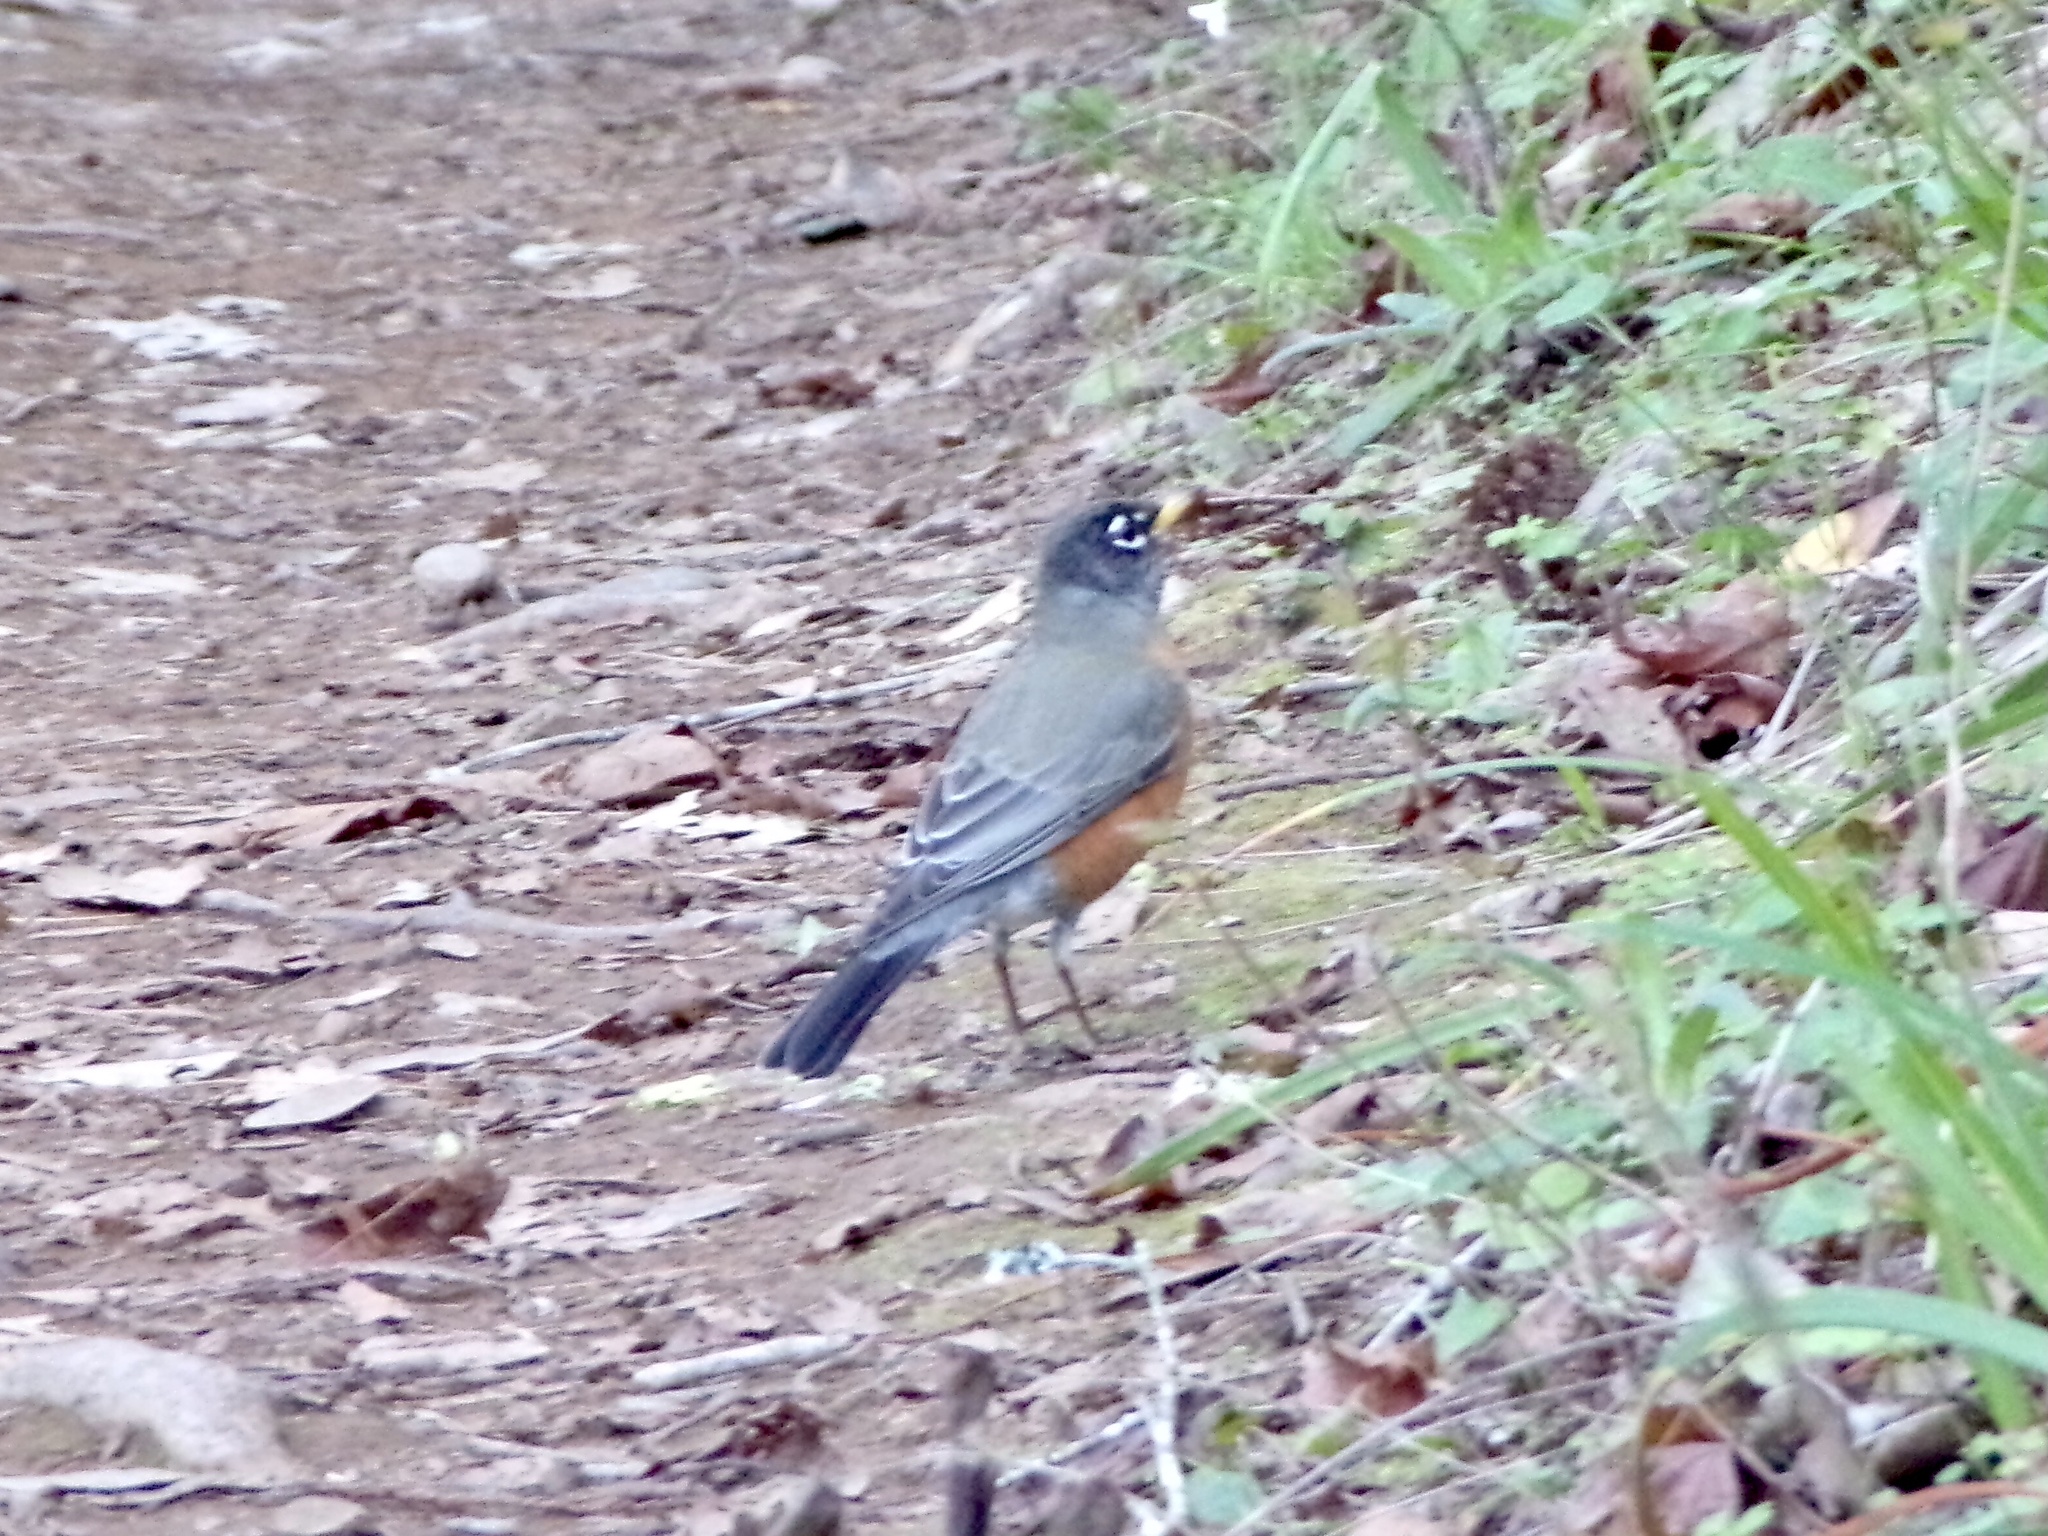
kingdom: Animalia
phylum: Chordata
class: Aves
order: Passeriformes
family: Turdidae
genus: Turdus
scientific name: Turdus migratorius
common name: American robin
